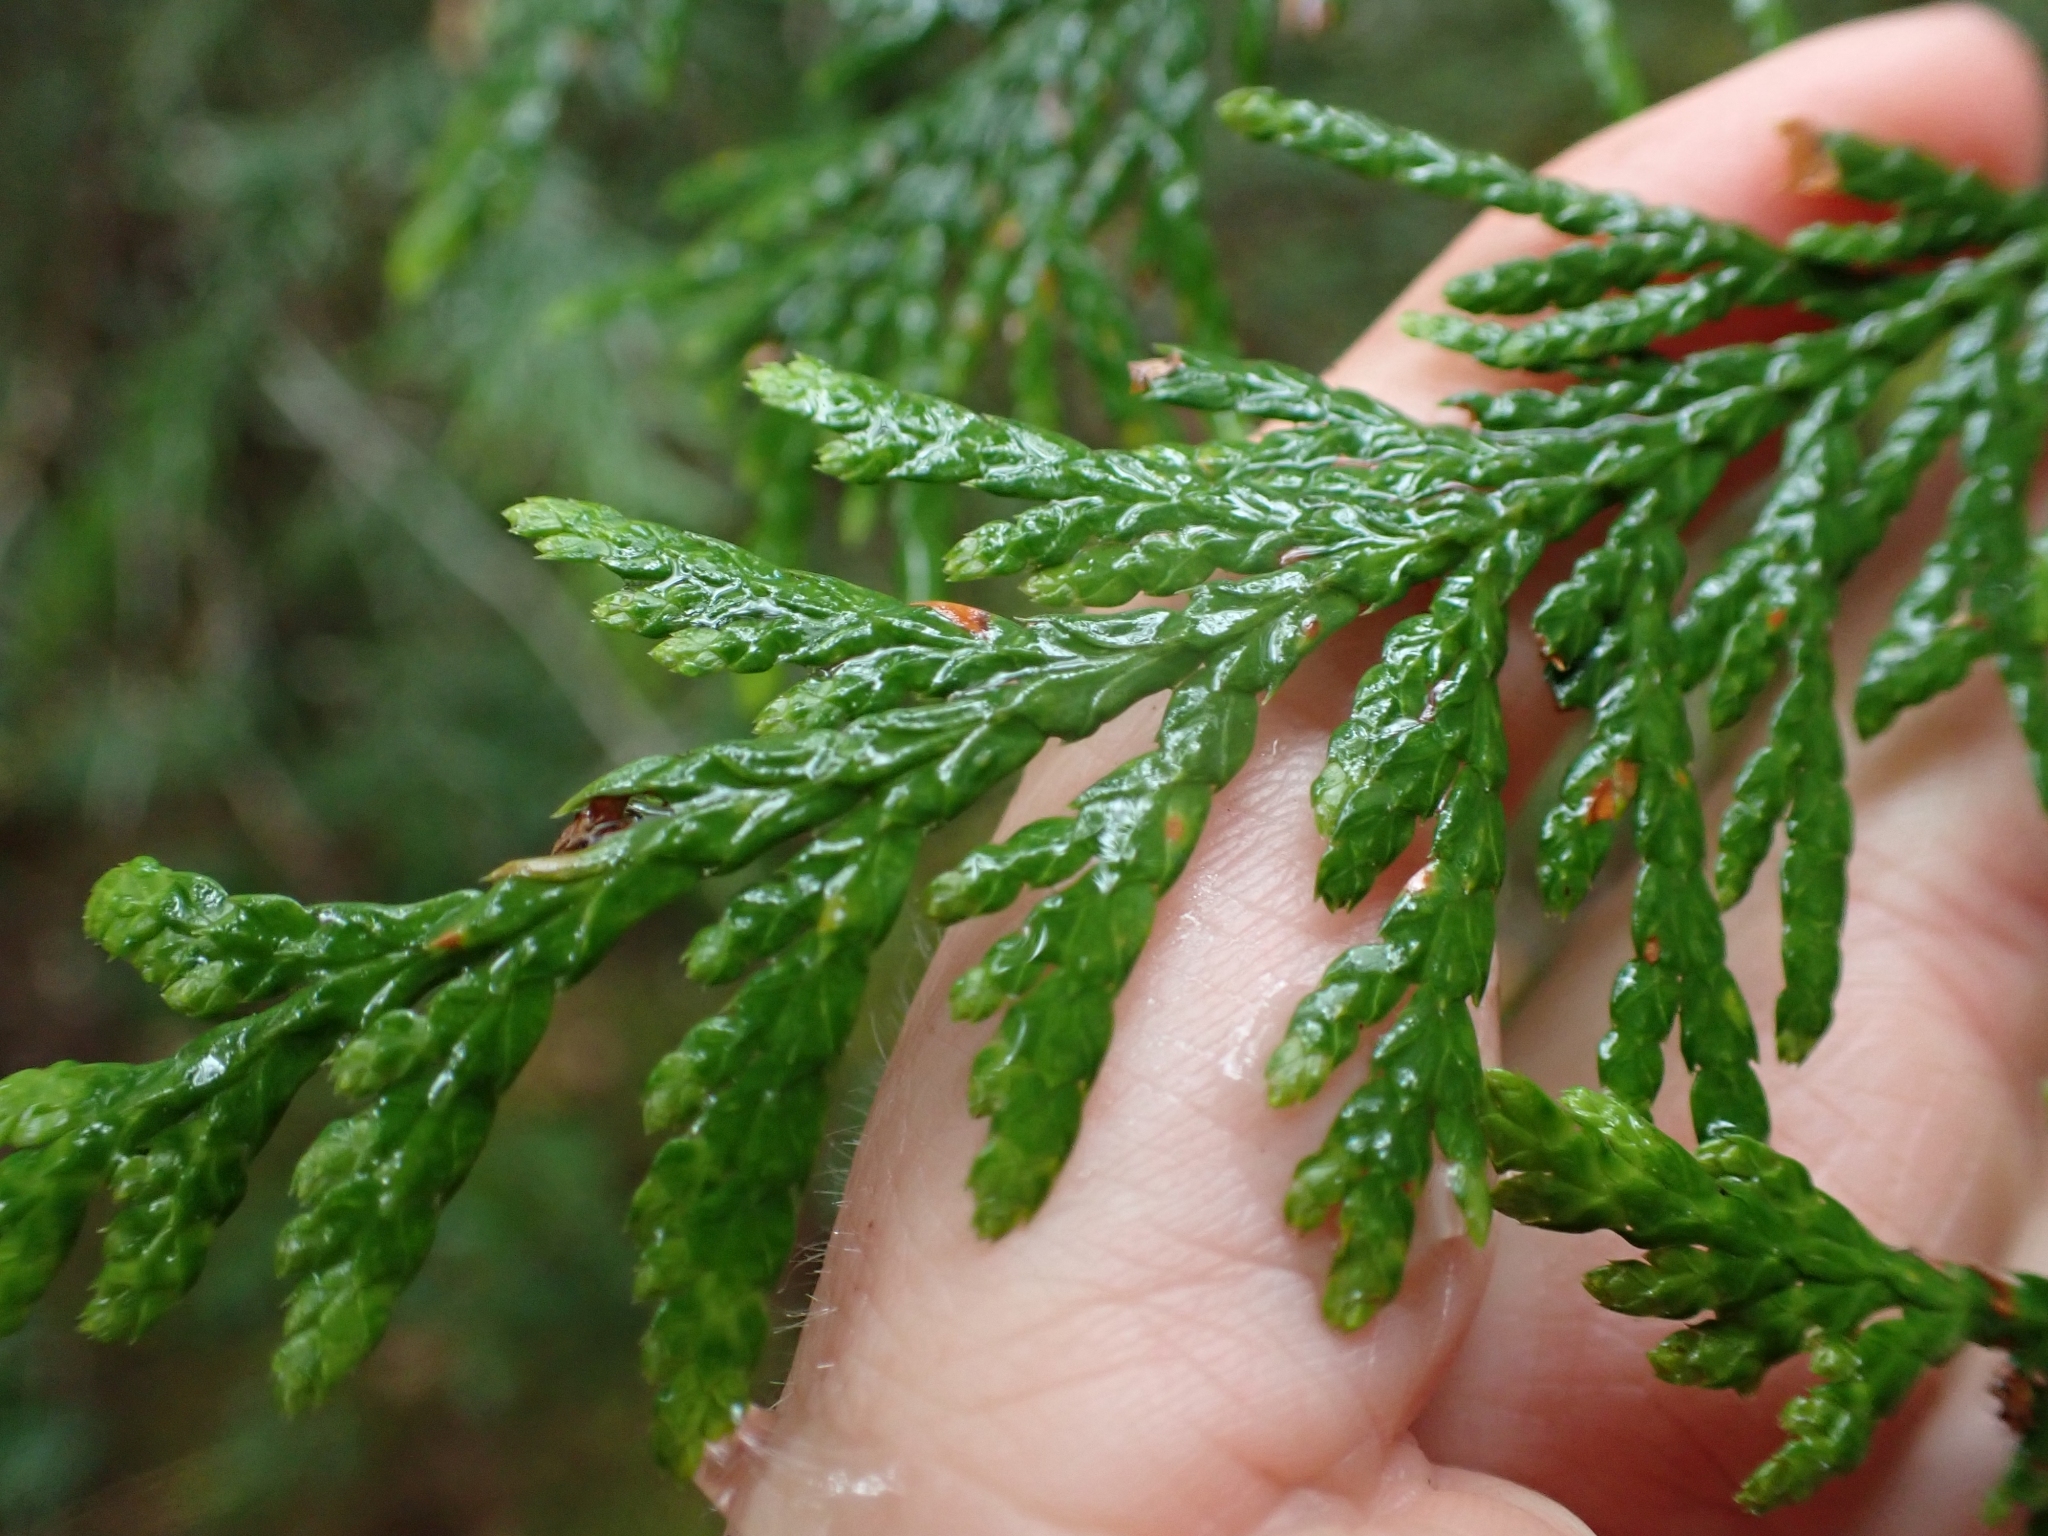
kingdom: Plantae
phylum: Tracheophyta
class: Pinopsida
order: Pinales
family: Cupressaceae
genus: Thuja
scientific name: Thuja plicata
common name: Western red-cedar
